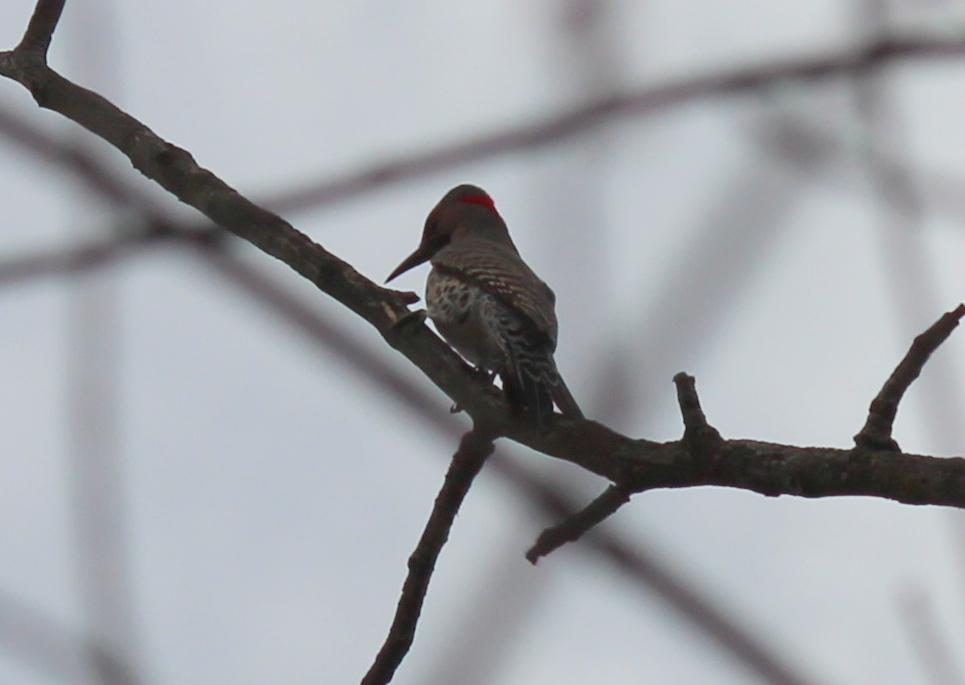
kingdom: Animalia
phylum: Chordata
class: Aves
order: Piciformes
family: Picidae
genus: Colaptes
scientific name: Colaptes auratus
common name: Northern flicker
